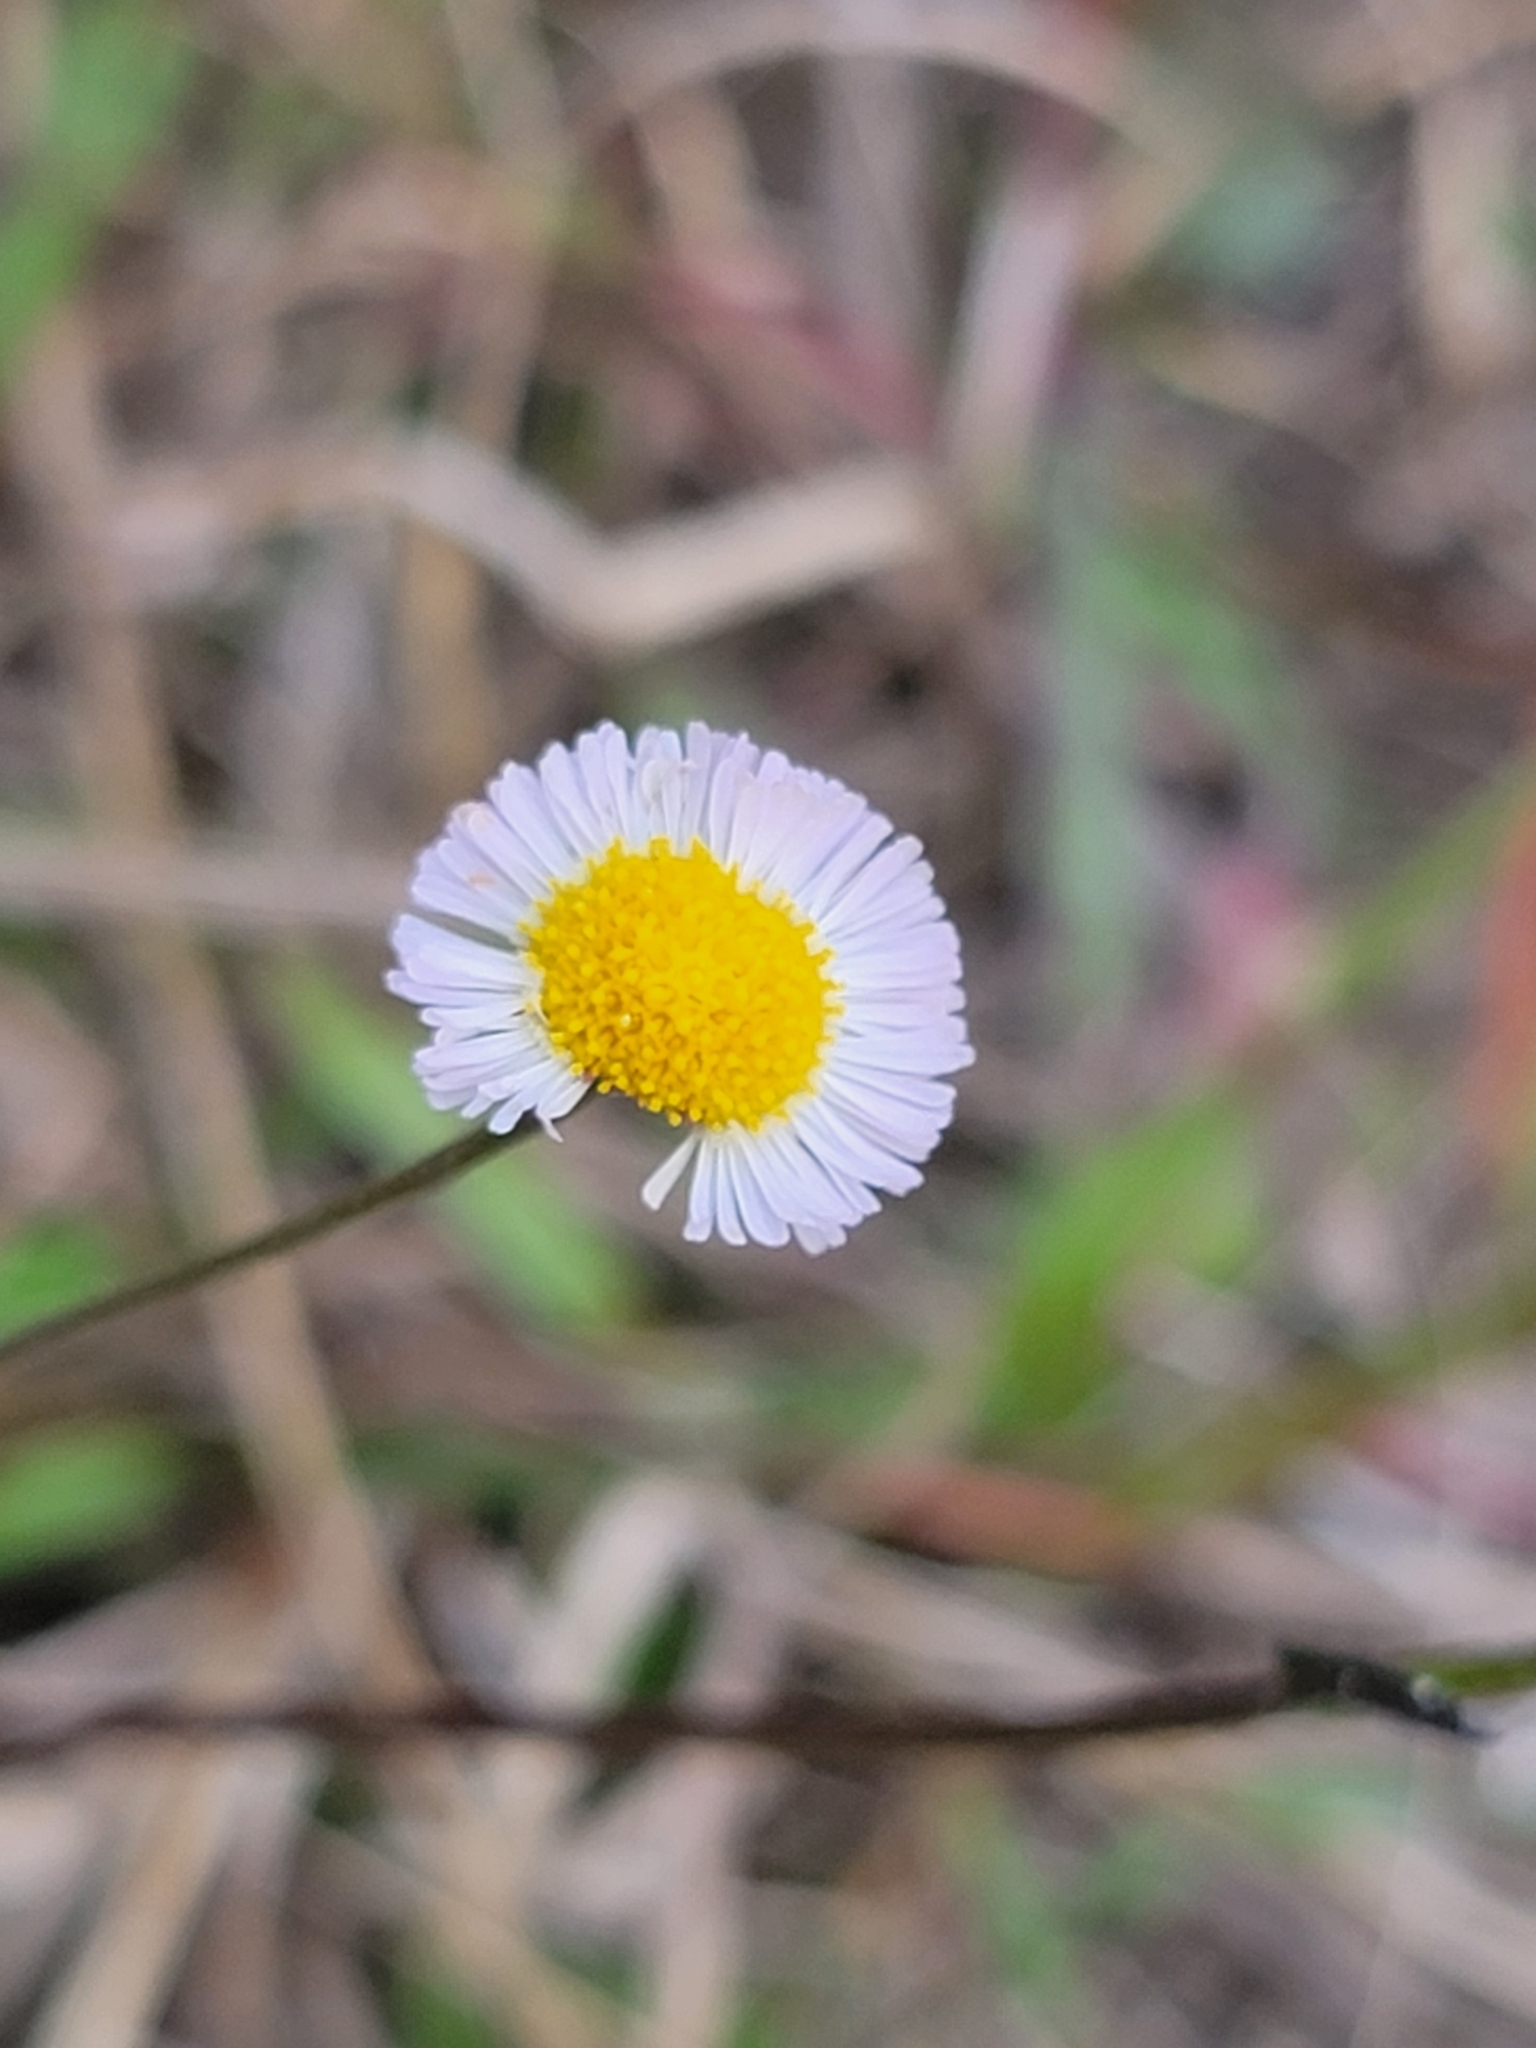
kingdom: Plantae
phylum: Tracheophyta
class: Magnoliopsida
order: Asterales
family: Asteraceae
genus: Erigeron
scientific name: Erigeron quercifolius
